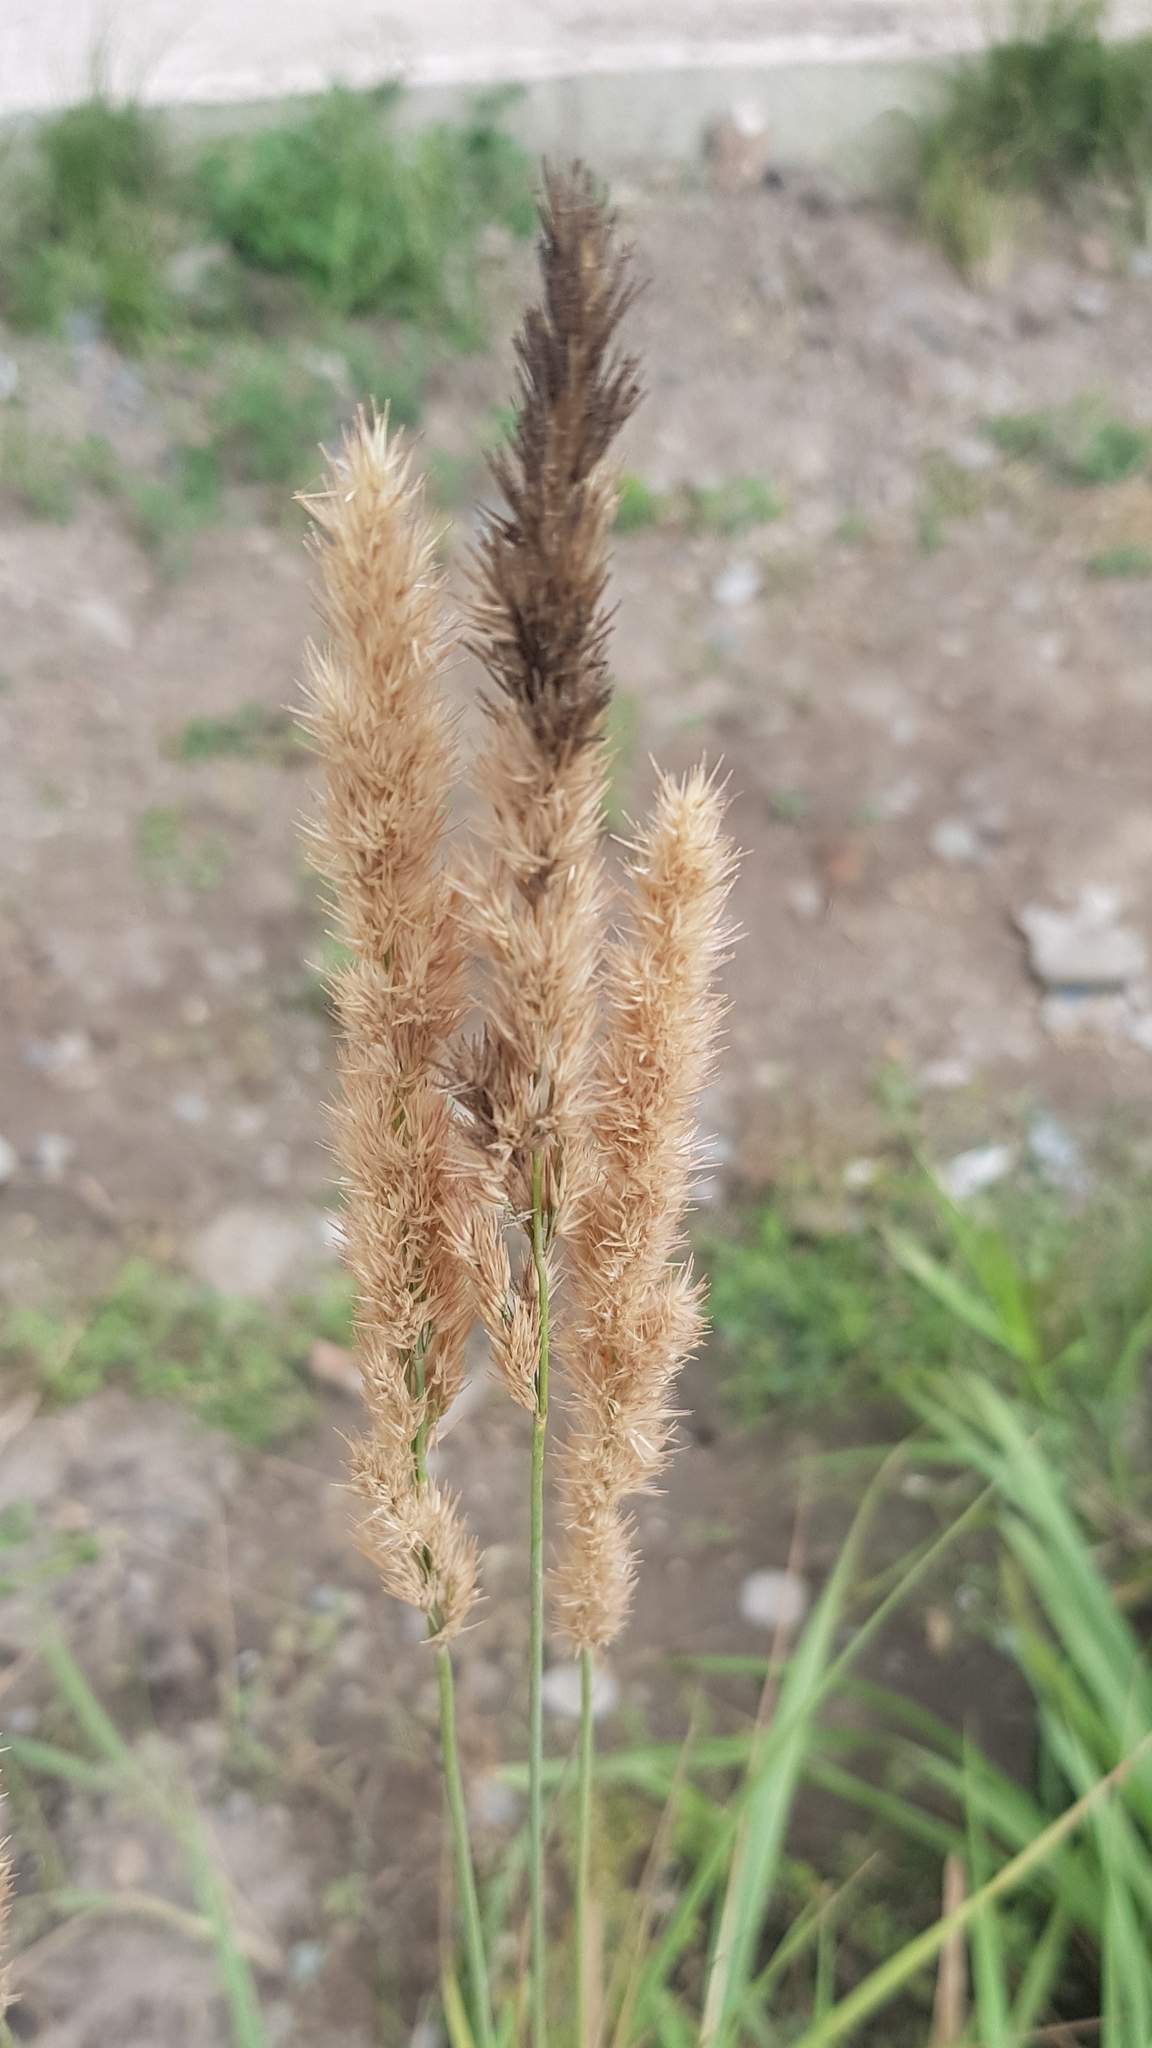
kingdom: Plantae
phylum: Tracheophyta
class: Liliopsida
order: Poales
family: Poaceae
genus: Calamagrostis
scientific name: Calamagrostis epigejos
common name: Wood small-reed
